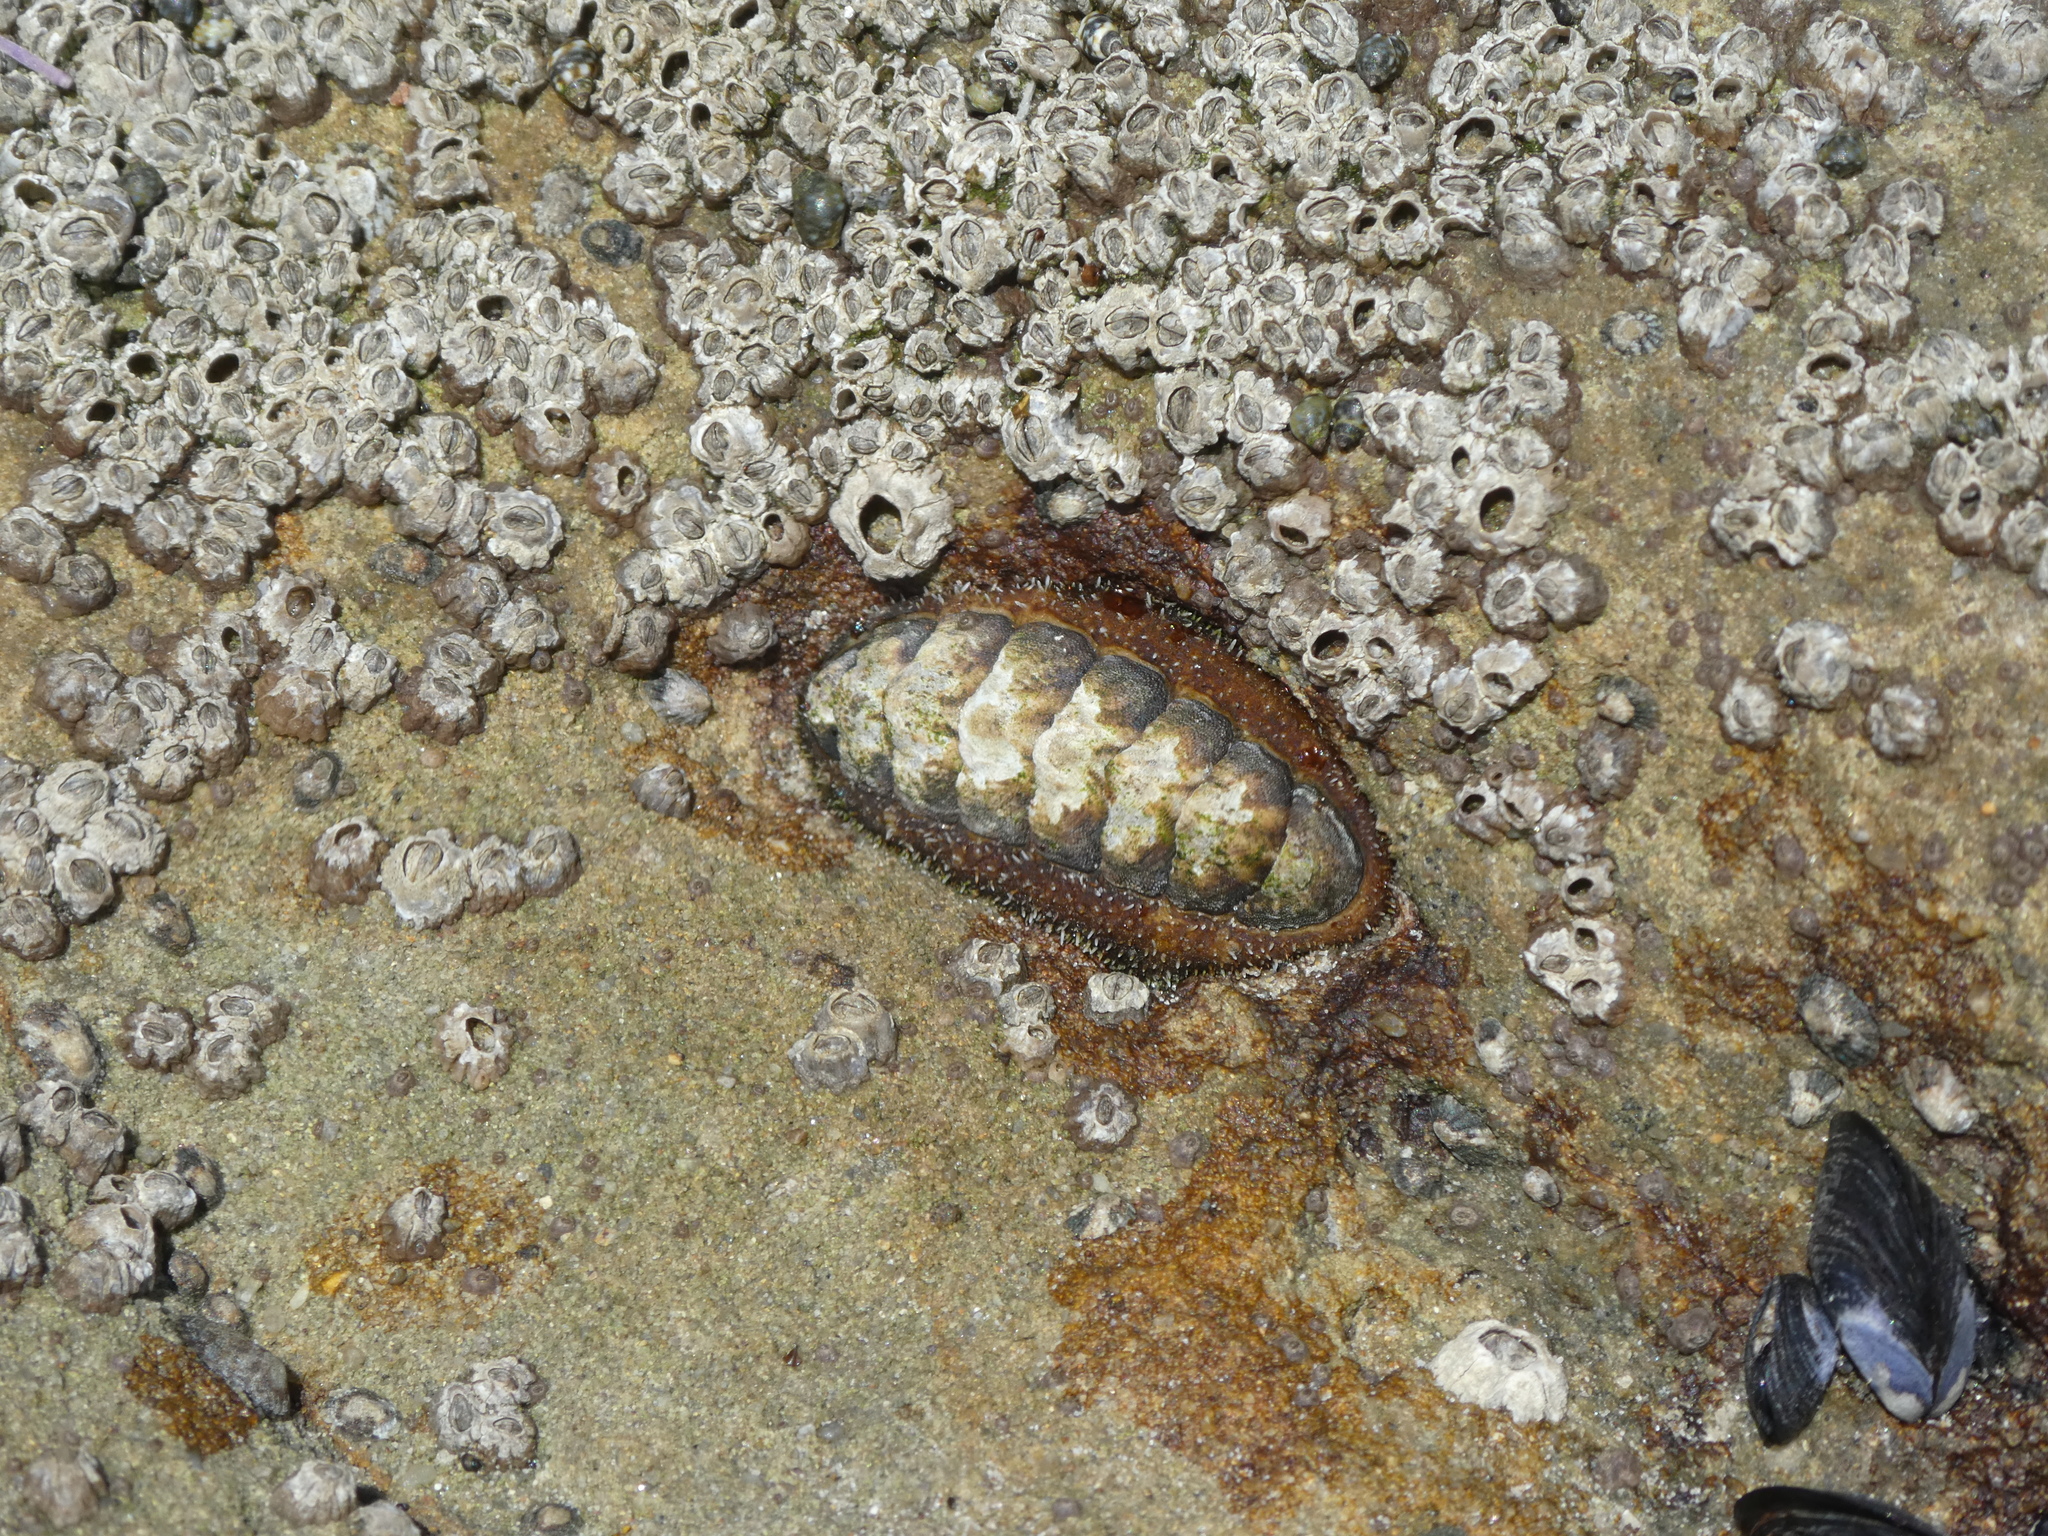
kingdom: Animalia
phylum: Mollusca
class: Polyplacophora
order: Chitonida
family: Tonicellidae
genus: Nuttallina
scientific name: Nuttallina californica
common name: California nuttall chiton
